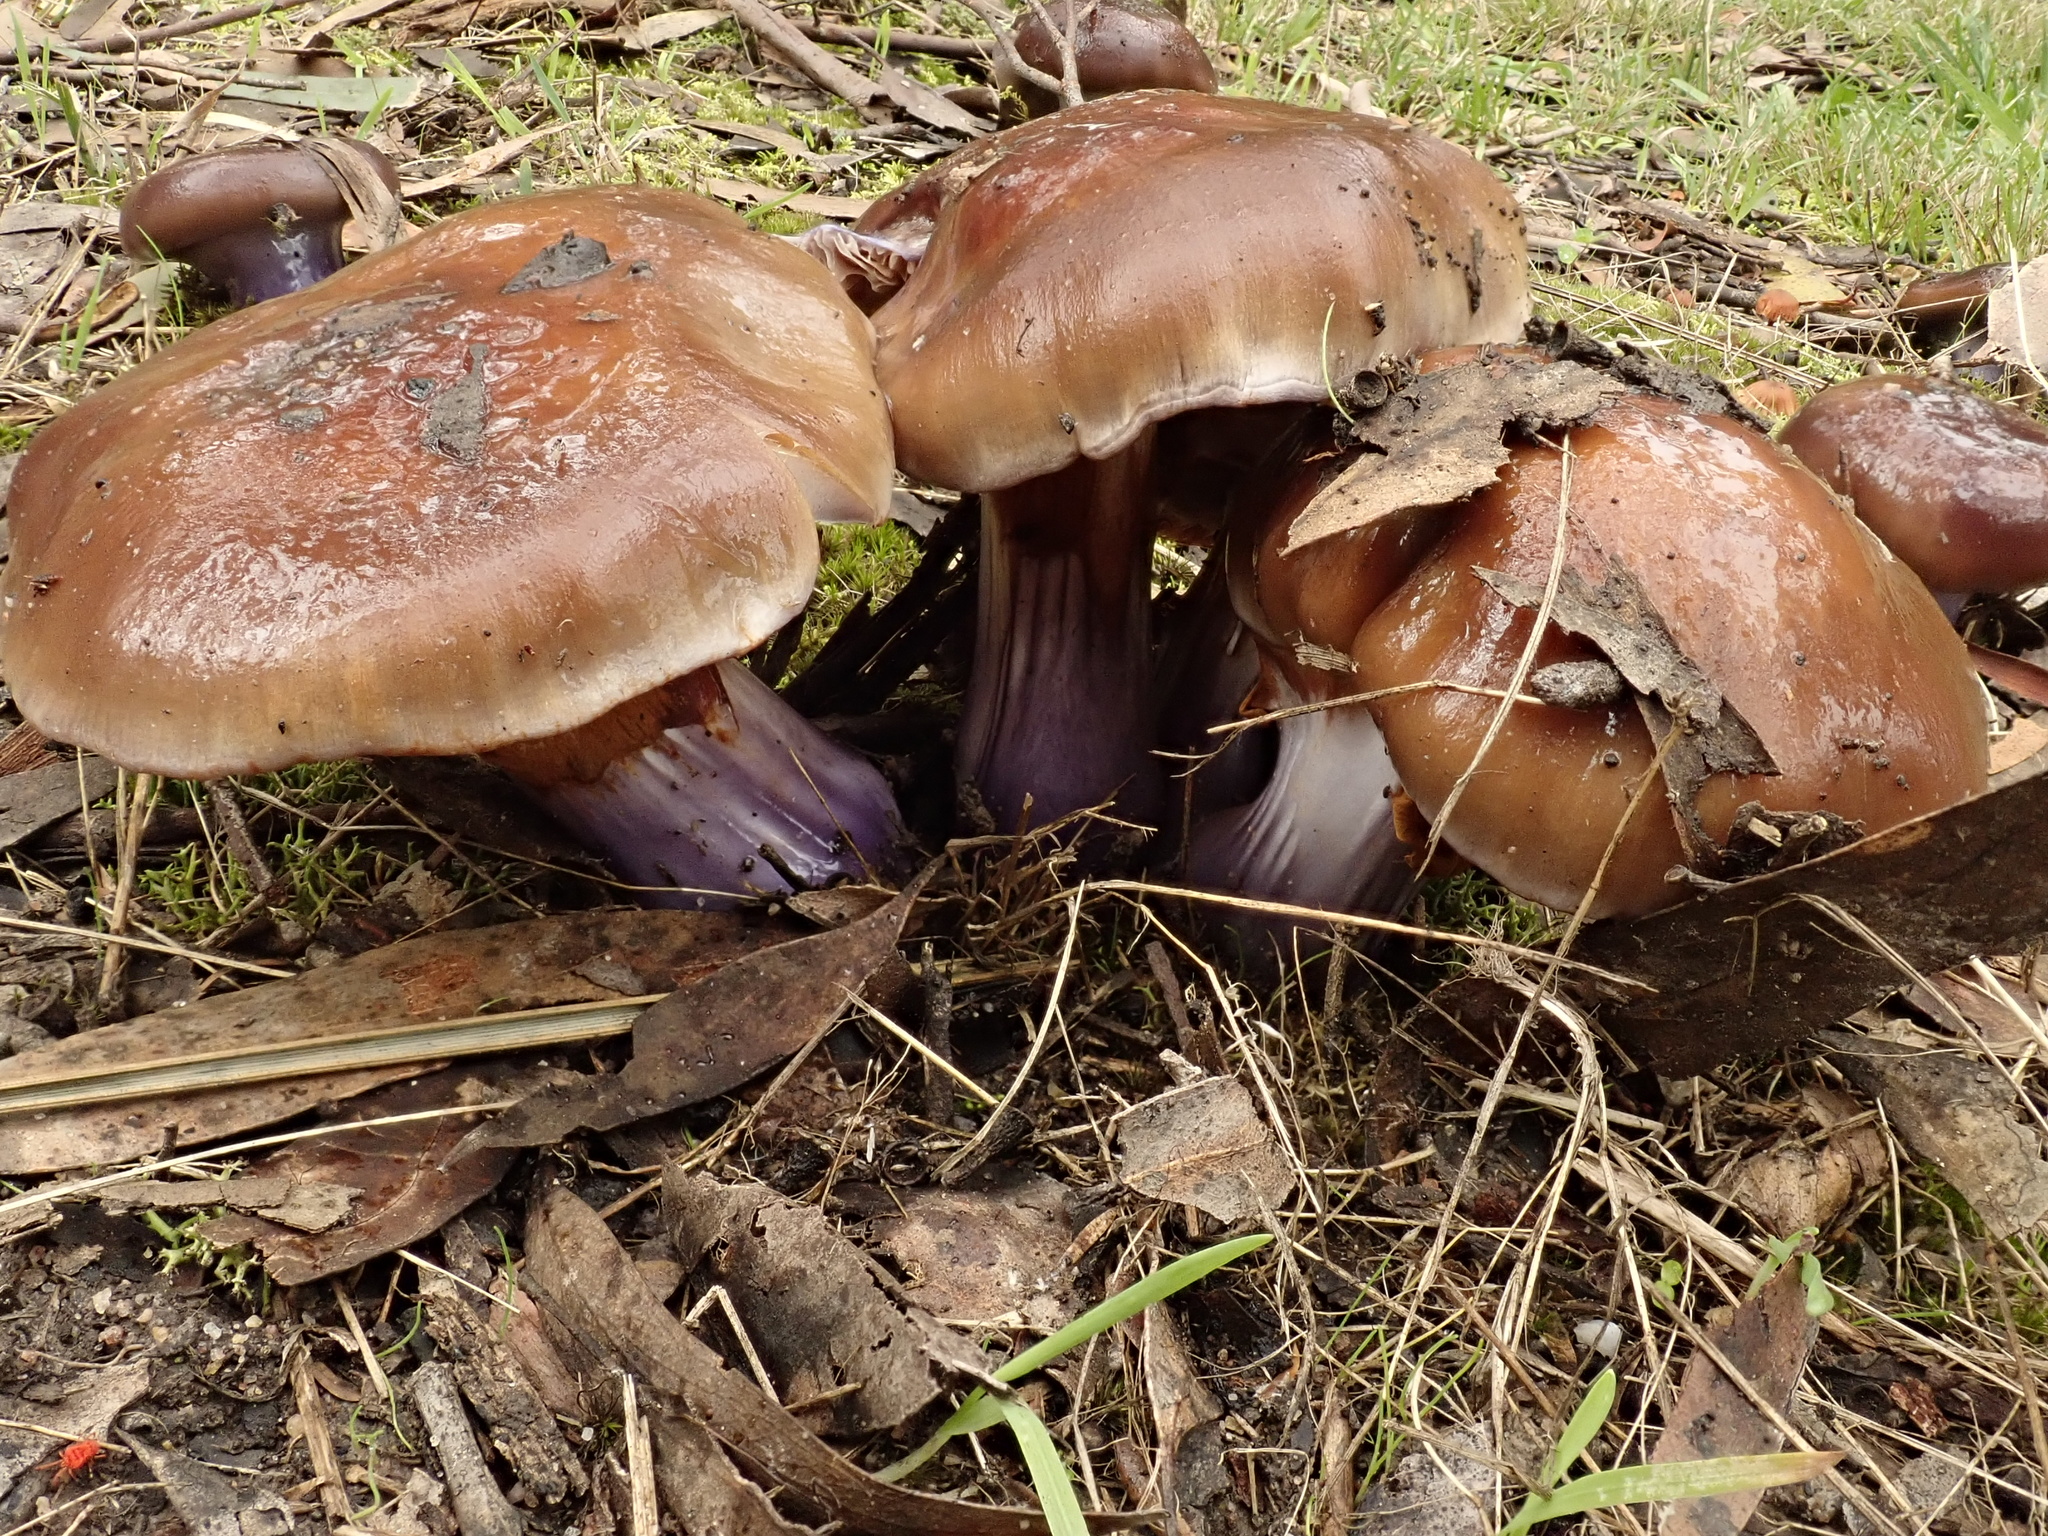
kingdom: Fungi
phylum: Basidiomycota
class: Agaricomycetes
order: Agaricales
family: Cortinariaceae
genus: Cortinarius
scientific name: Cortinarius archeri
